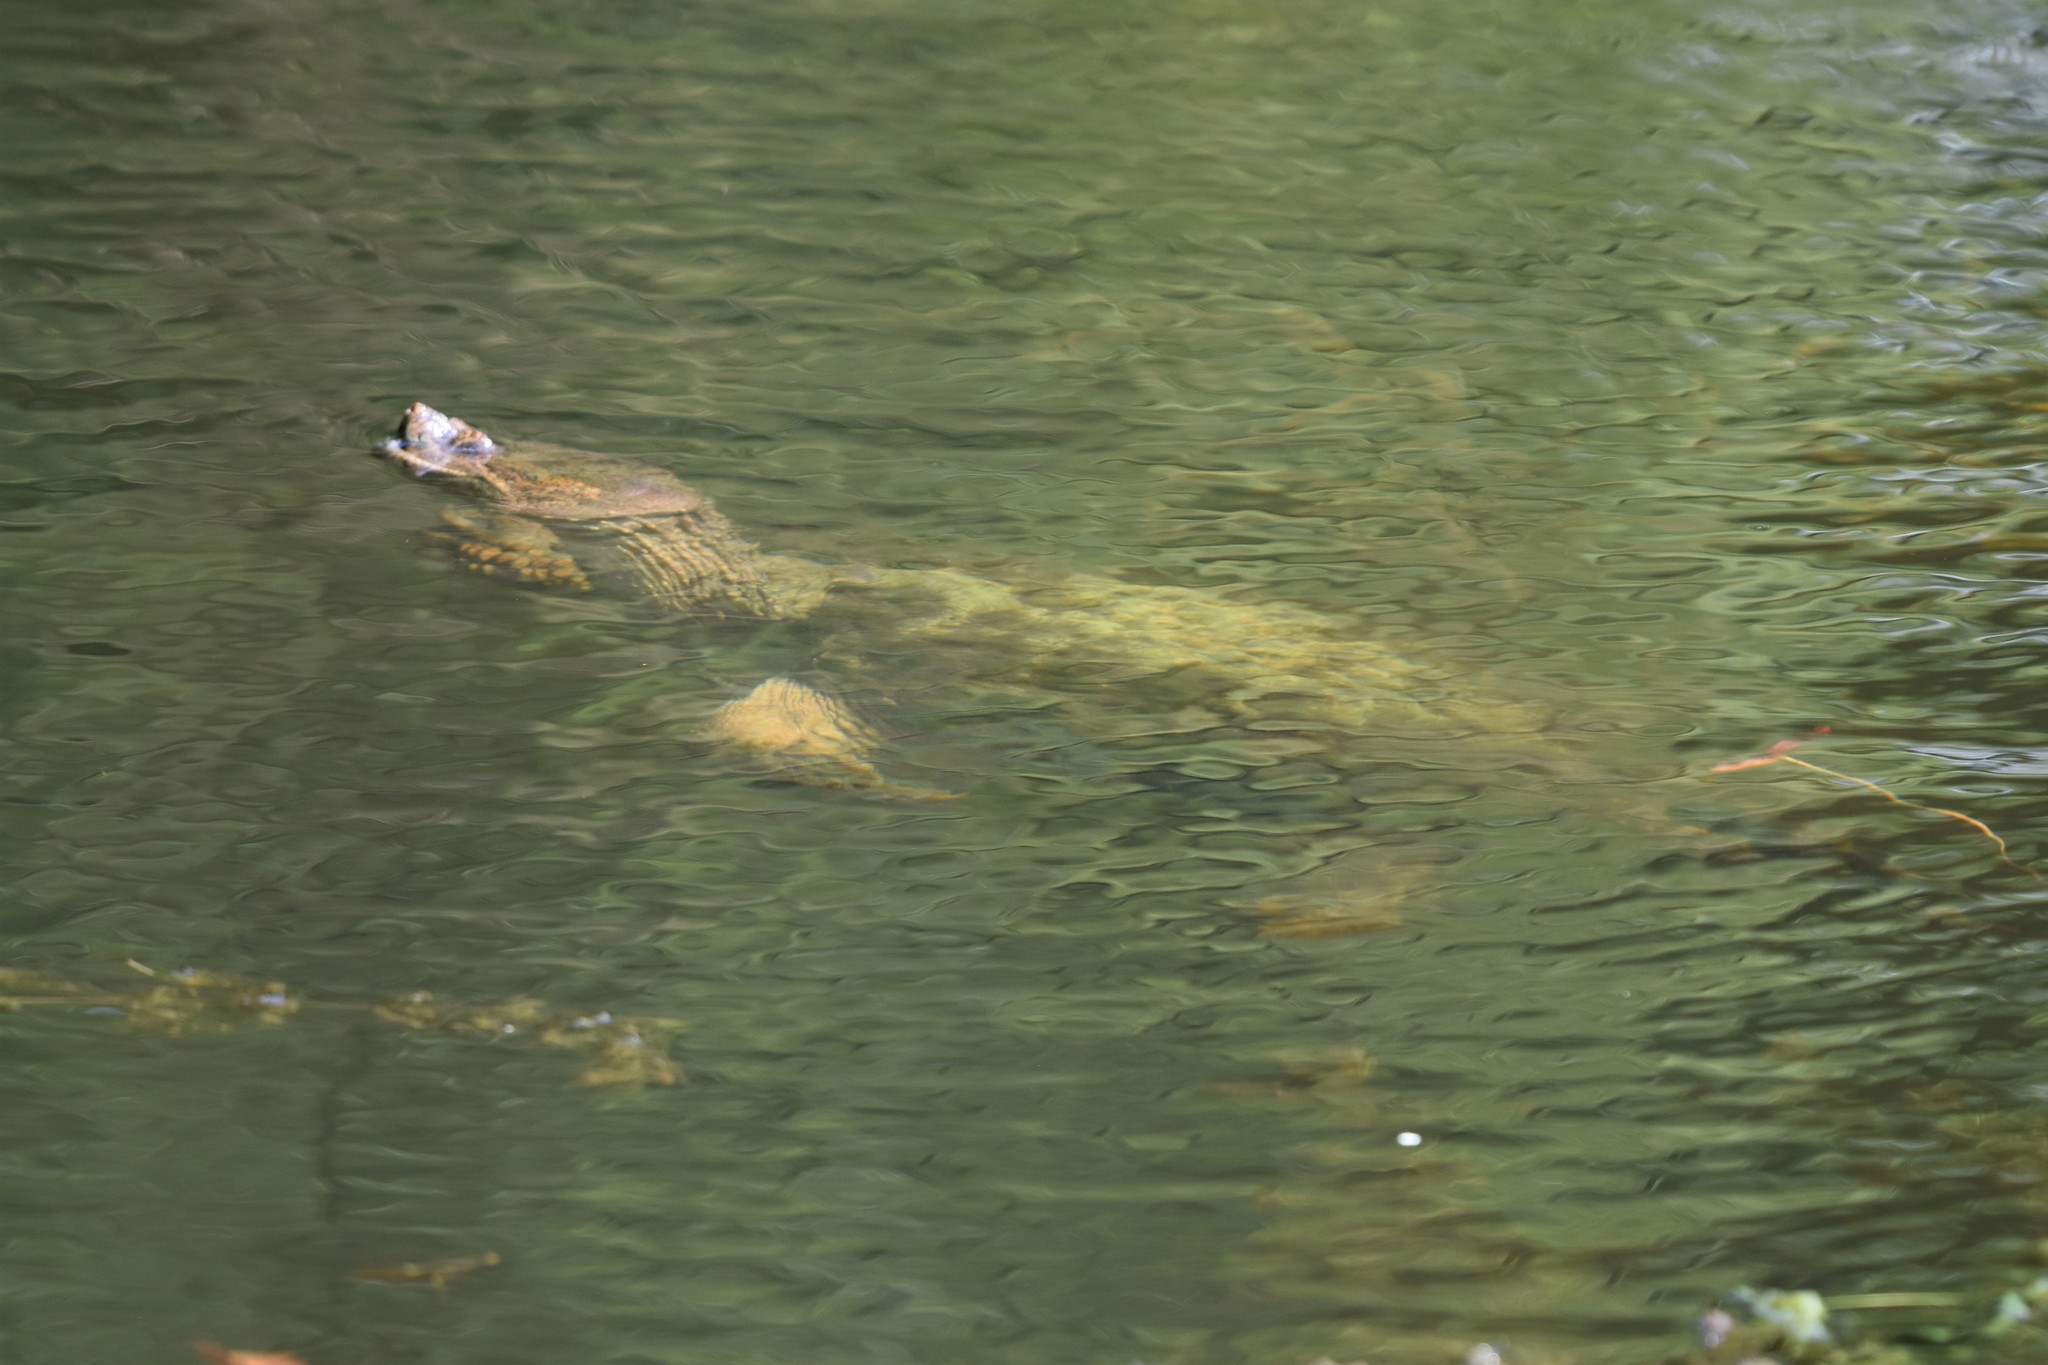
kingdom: Animalia
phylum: Chordata
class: Testudines
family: Chelydridae
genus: Chelydra
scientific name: Chelydra serpentina
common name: Common snapping turtle
